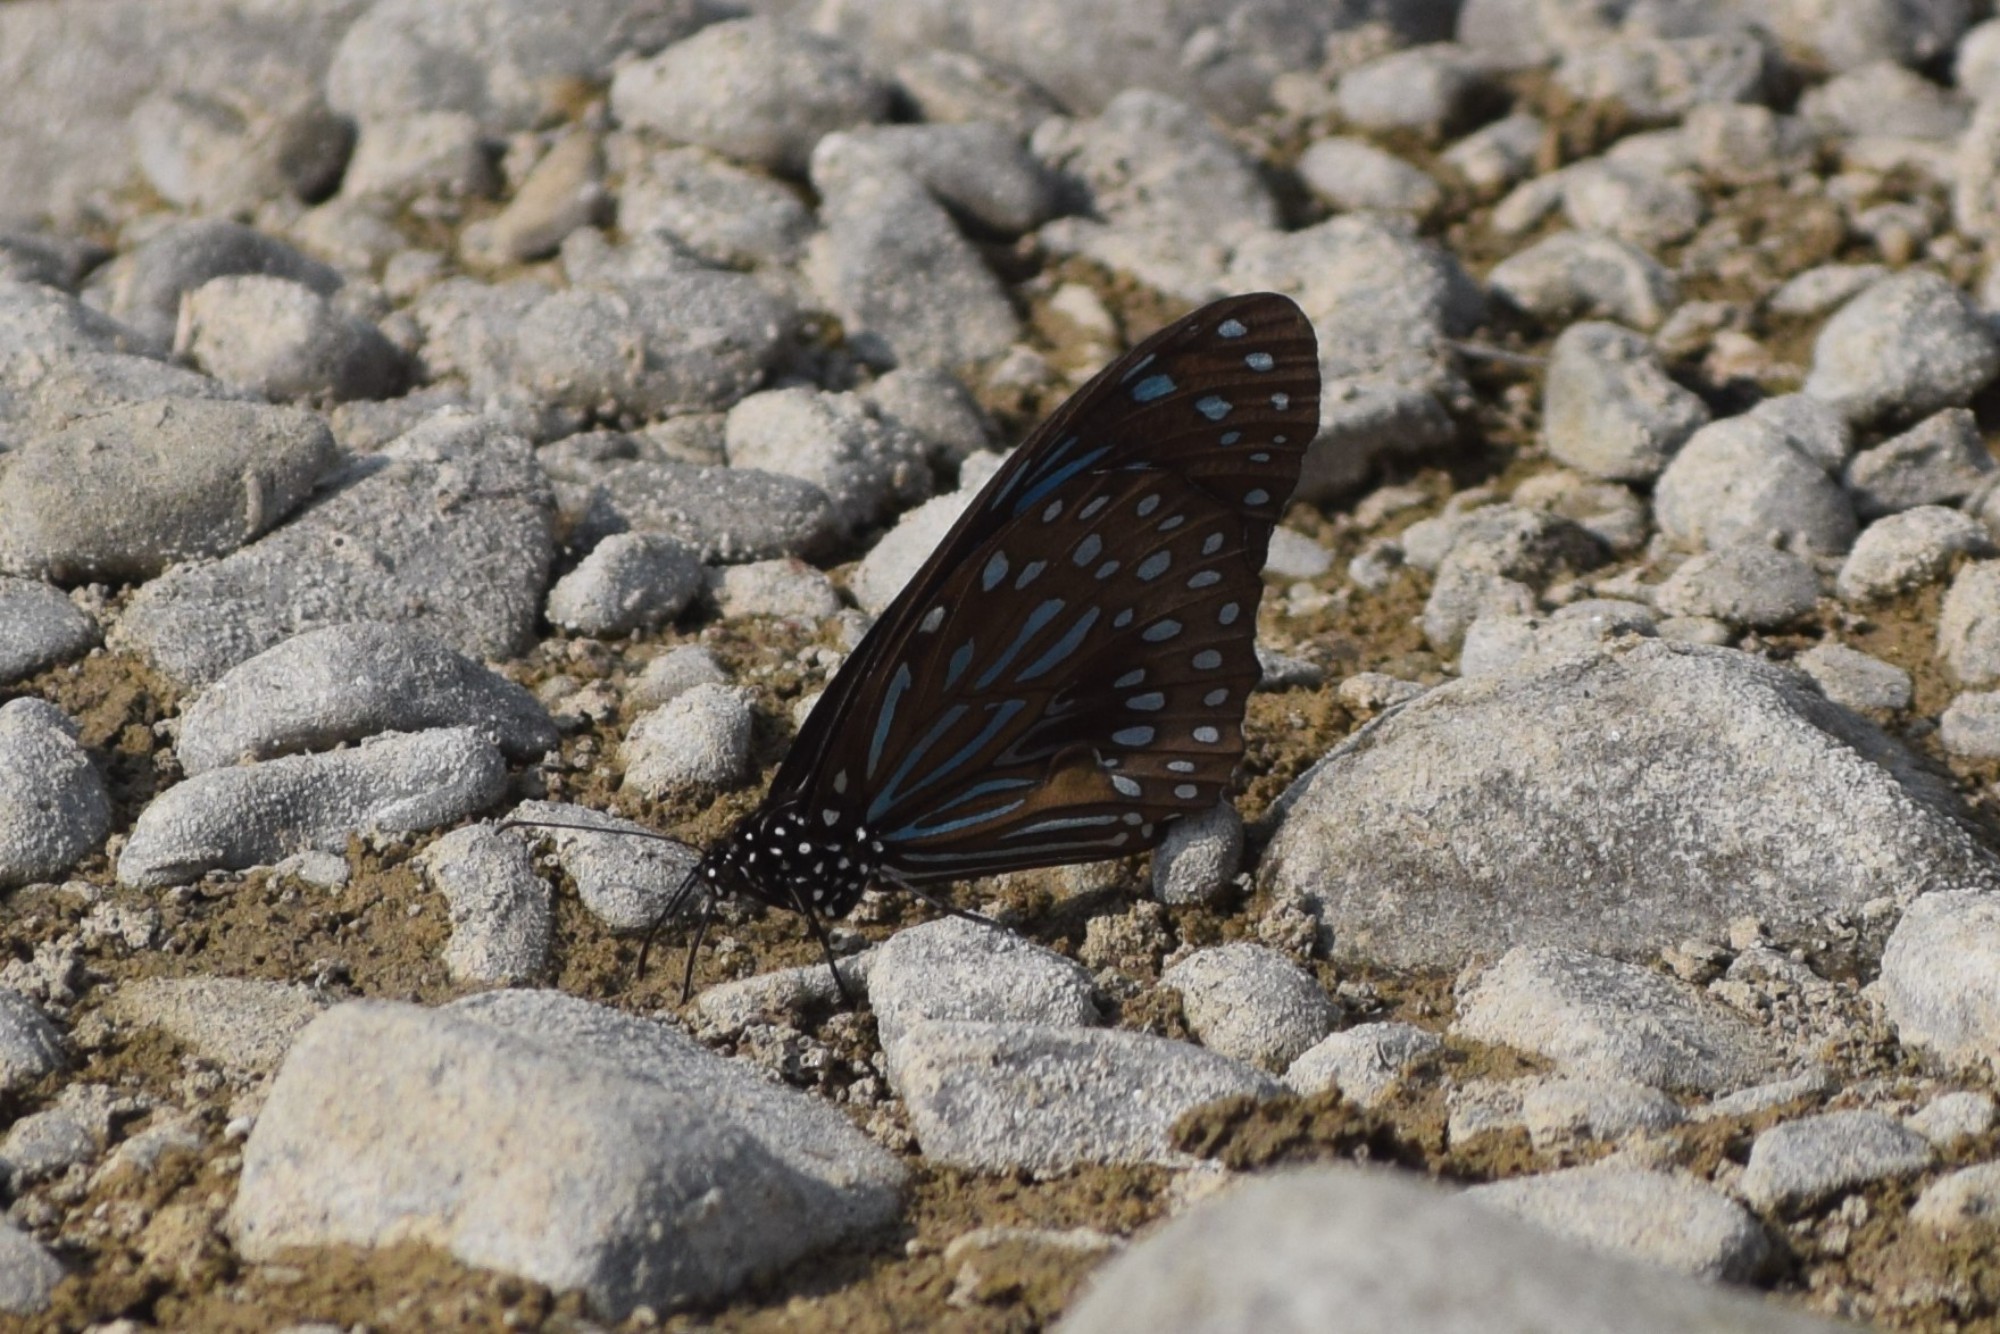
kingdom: Animalia
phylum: Arthropoda
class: Insecta
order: Lepidoptera
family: Nymphalidae
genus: Tirumala
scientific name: Tirumala septentrionis
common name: Dark blue tiger butterfly
